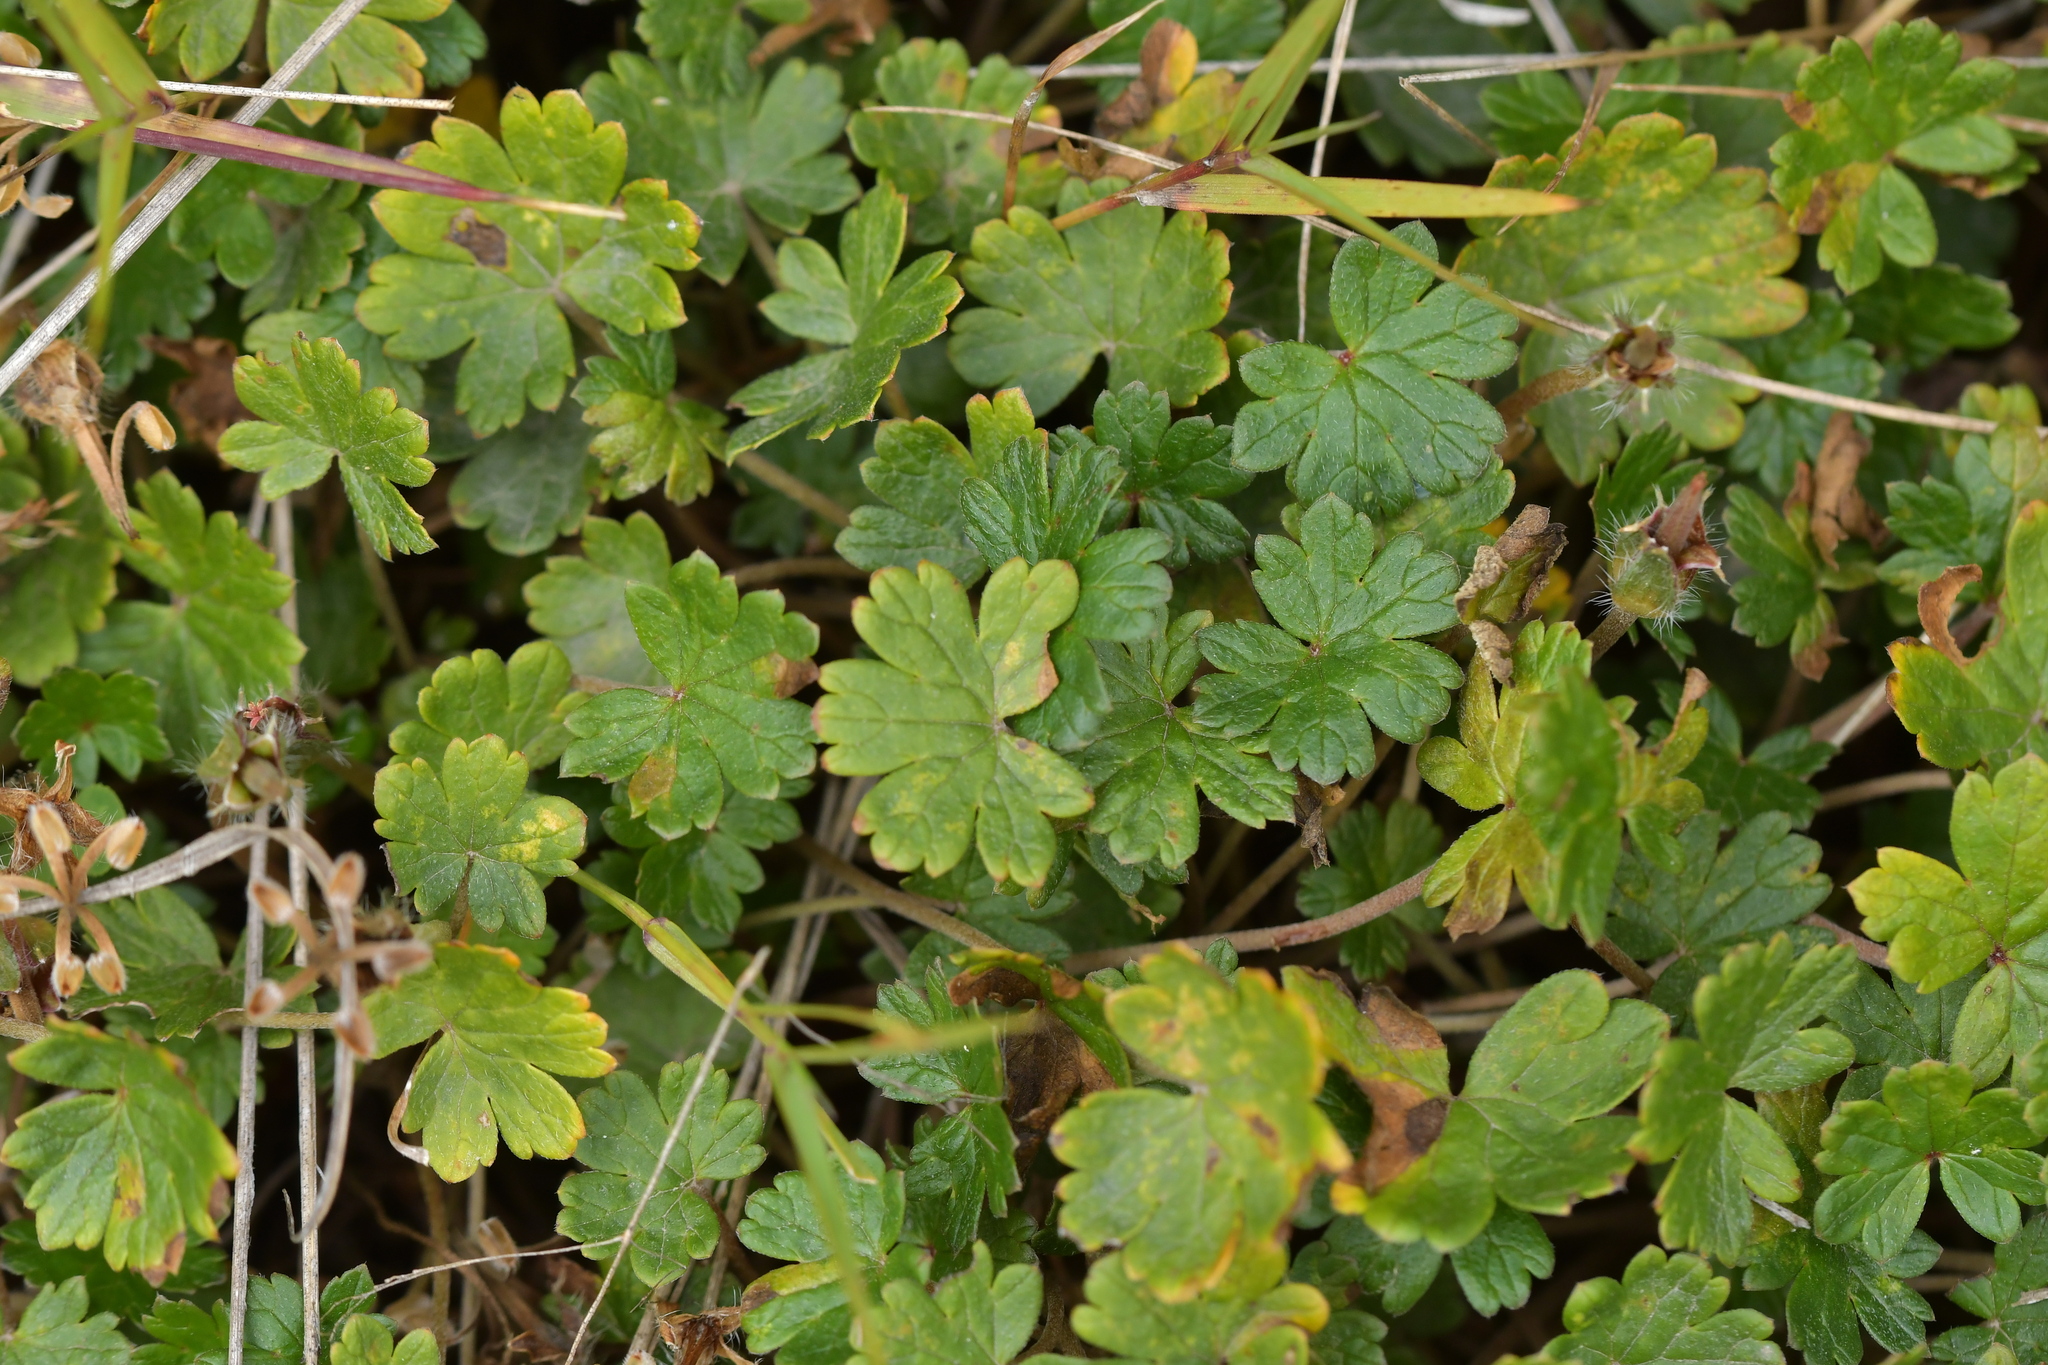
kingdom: Plantae
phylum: Tracheophyta
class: Magnoliopsida
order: Geraniales
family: Geraniaceae
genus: Geranium
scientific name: Geranium brevicaule
